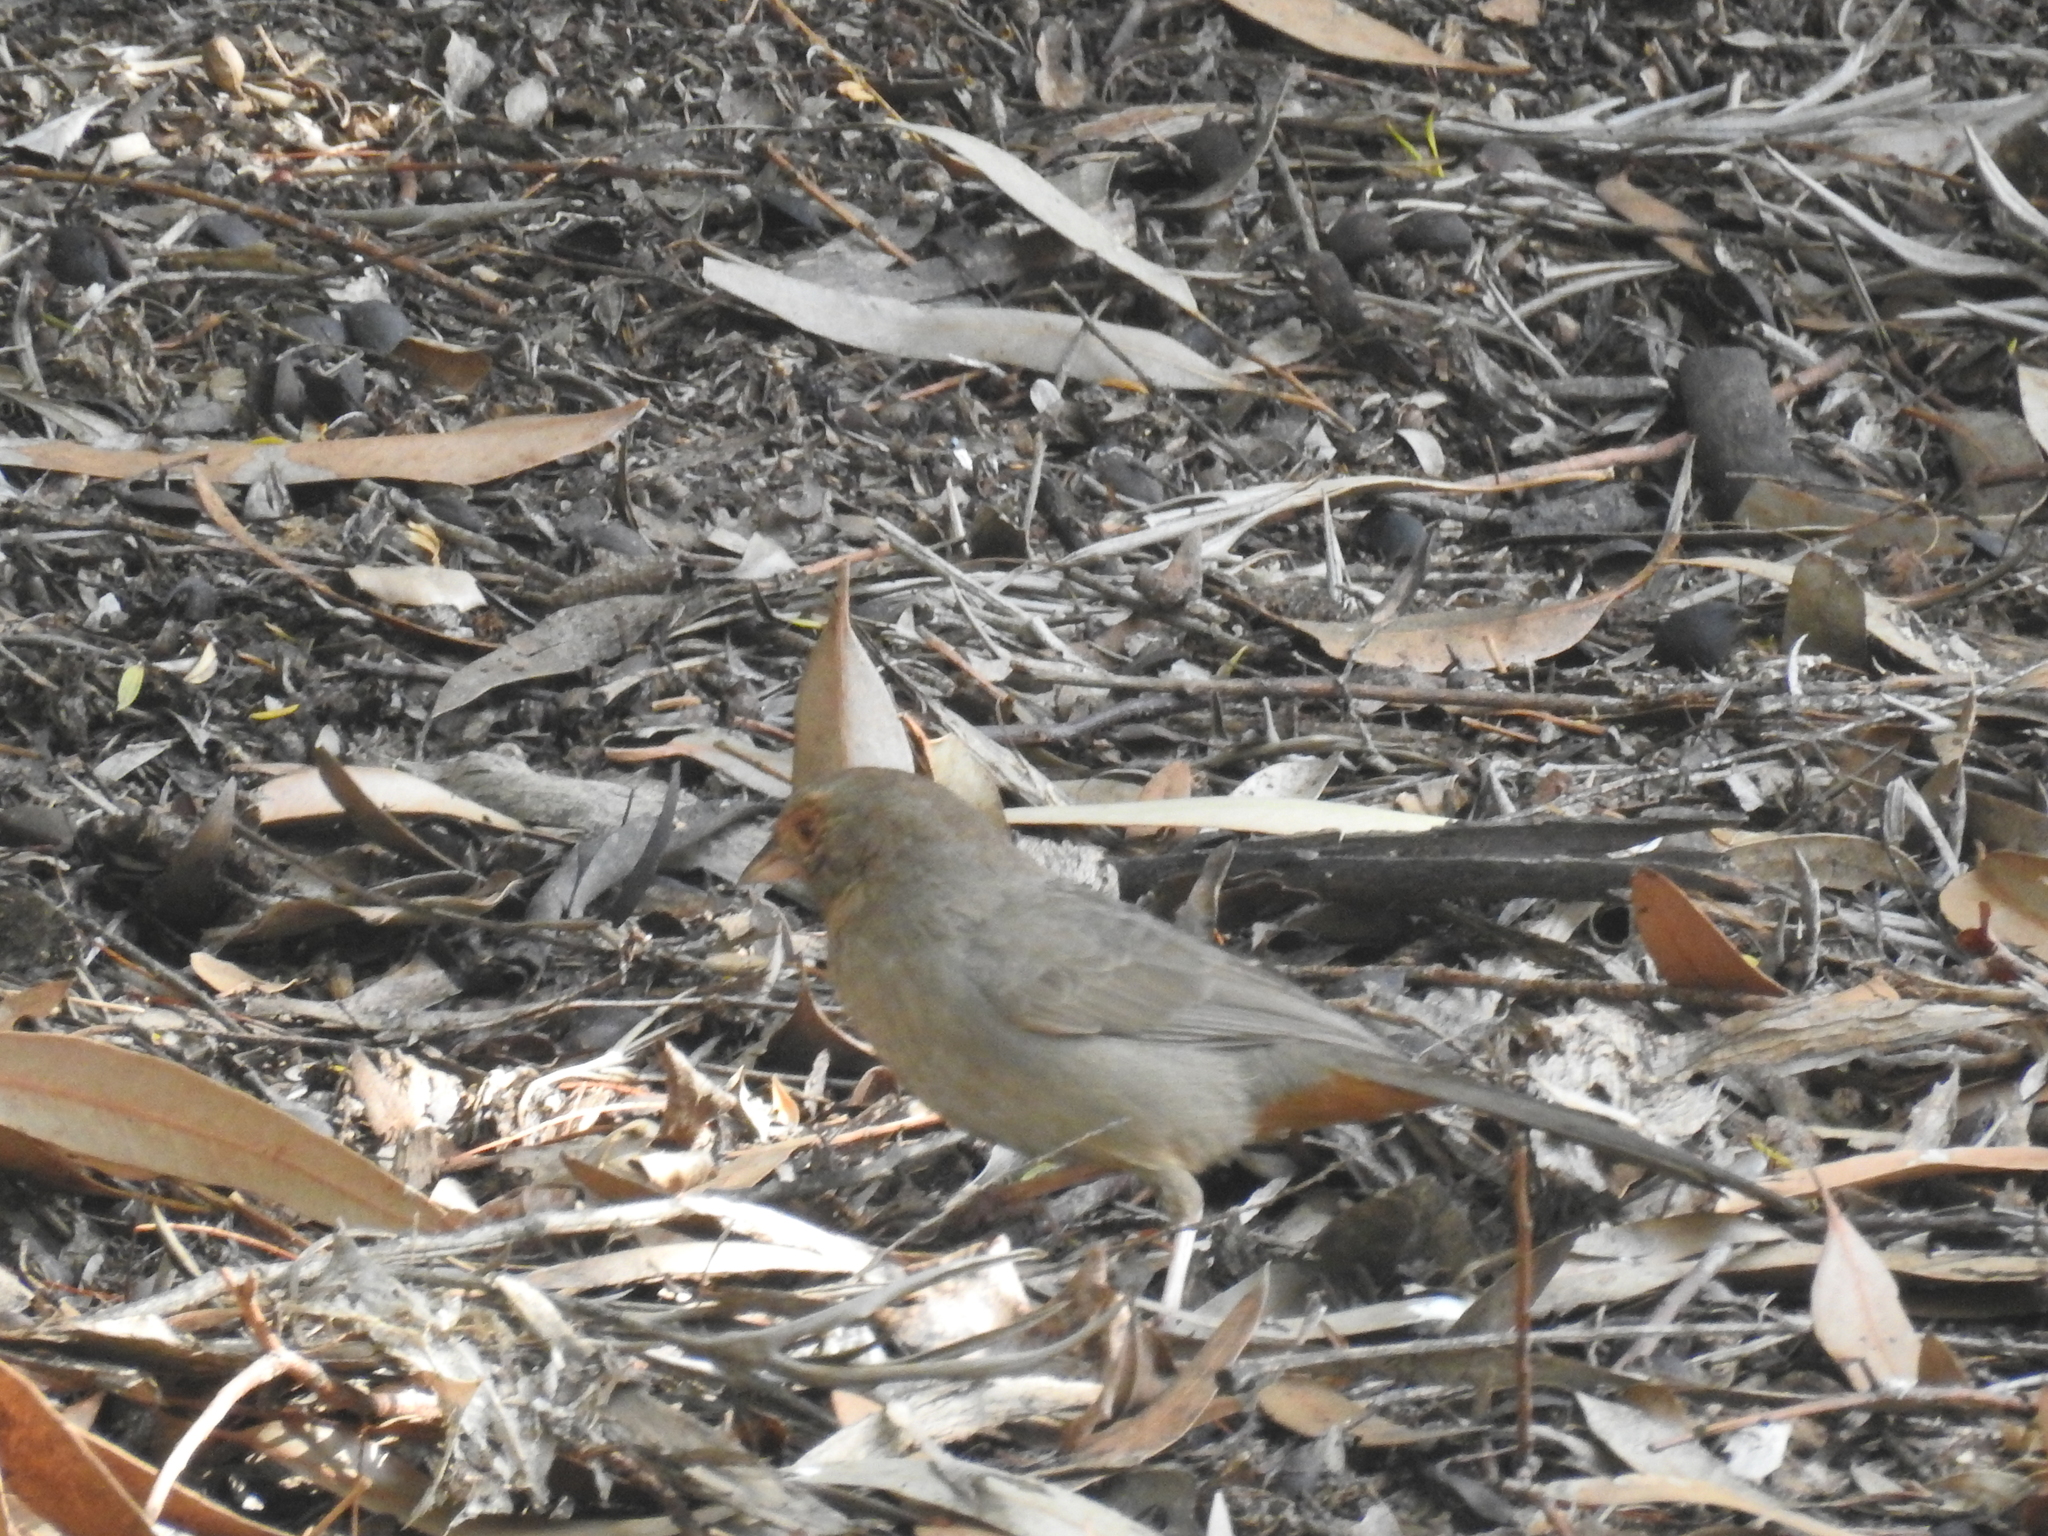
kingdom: Animalia
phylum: Chordata
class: Aves
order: Passeriformes
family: Passerellidae
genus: Melozone
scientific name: Melozone crissalis
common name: California towhee
